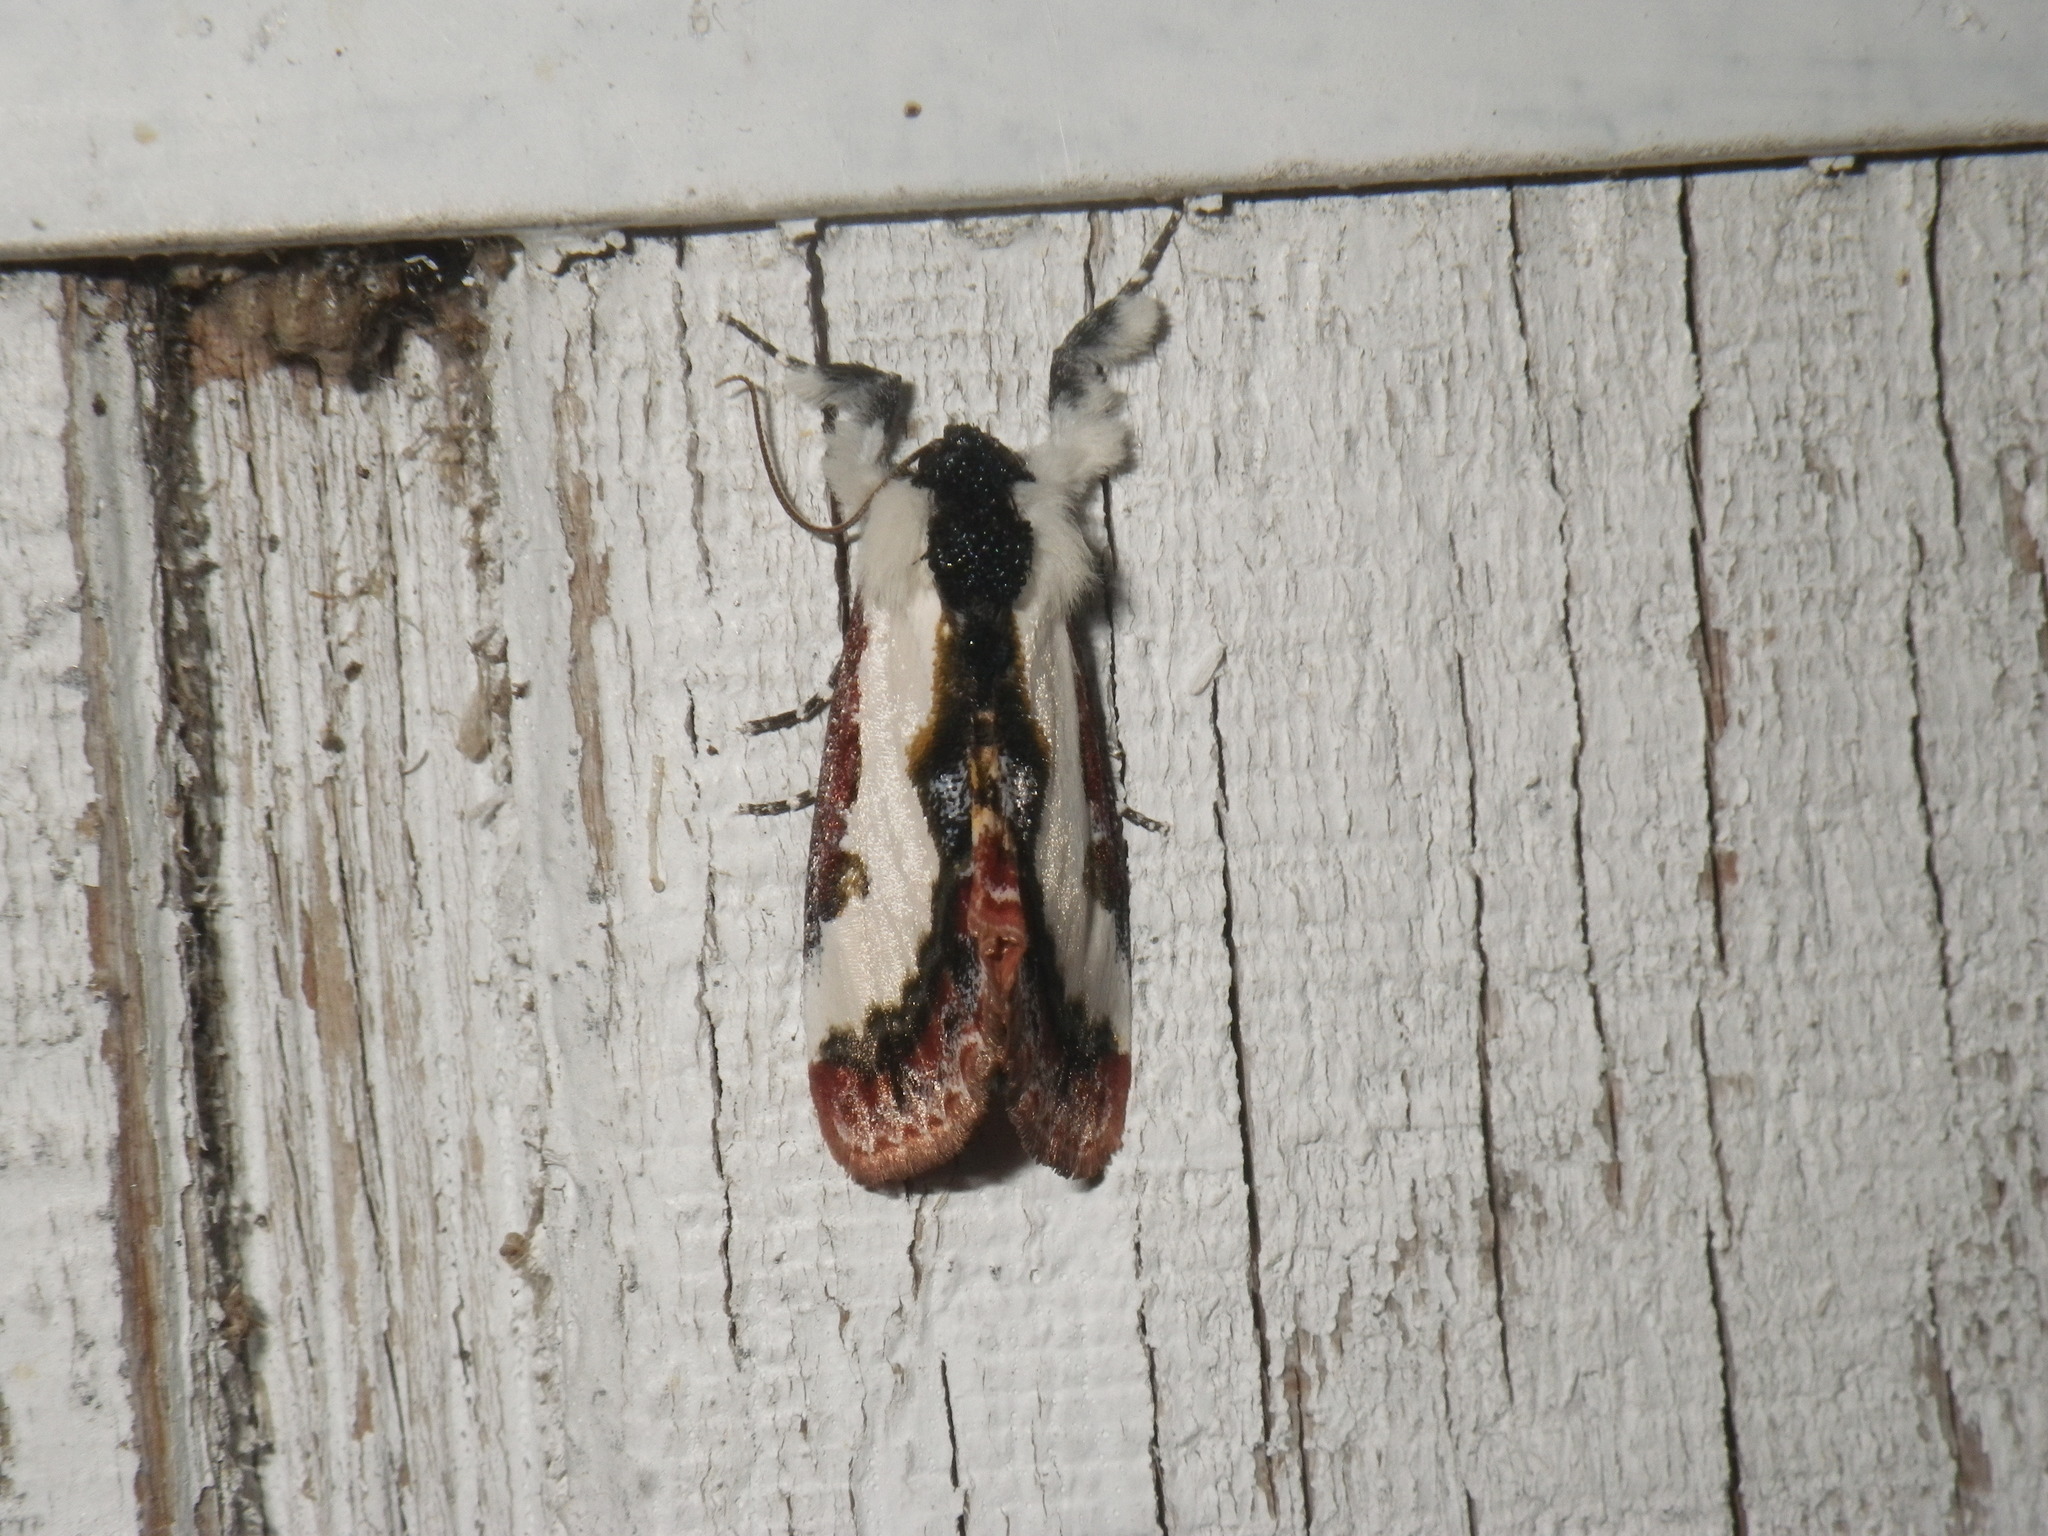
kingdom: Animalia
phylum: Arthropoda
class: Insecta
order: Lepidoptera
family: Noctuidae
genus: Eudryas
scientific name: Eudryas brevipennis
